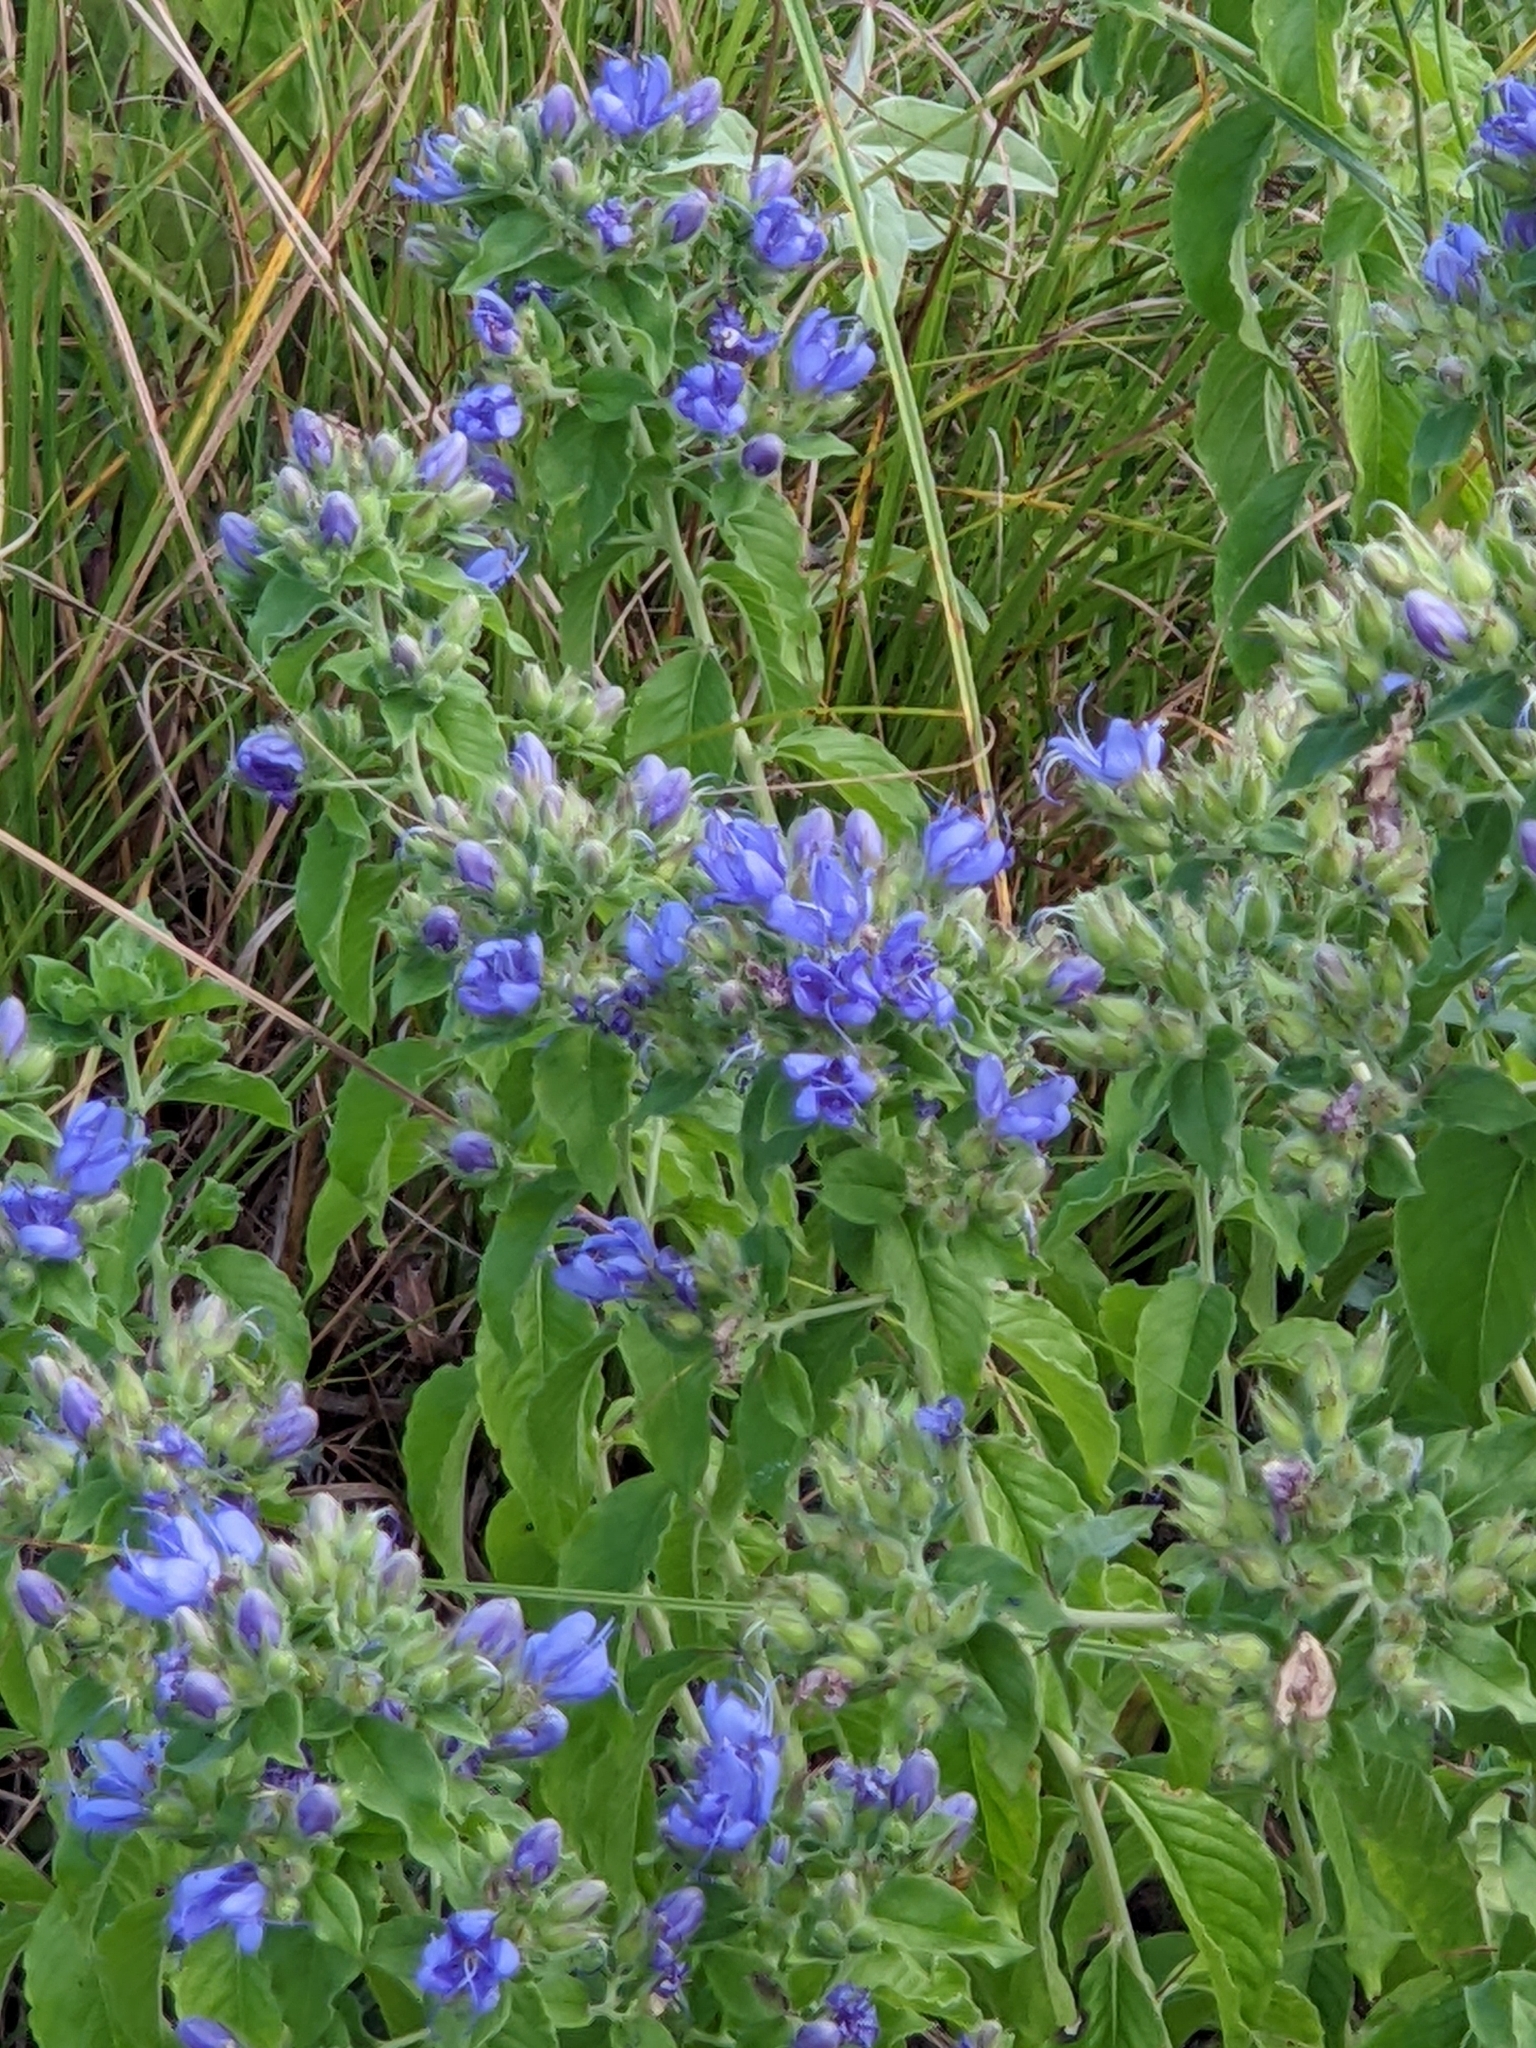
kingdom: Plantae
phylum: Tracheophyta
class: Magnoliopsida
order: Solanales
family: Hydroleaceae
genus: Hydrolea
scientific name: Hydrolea ovata
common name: Ovate false fiddleleaf
